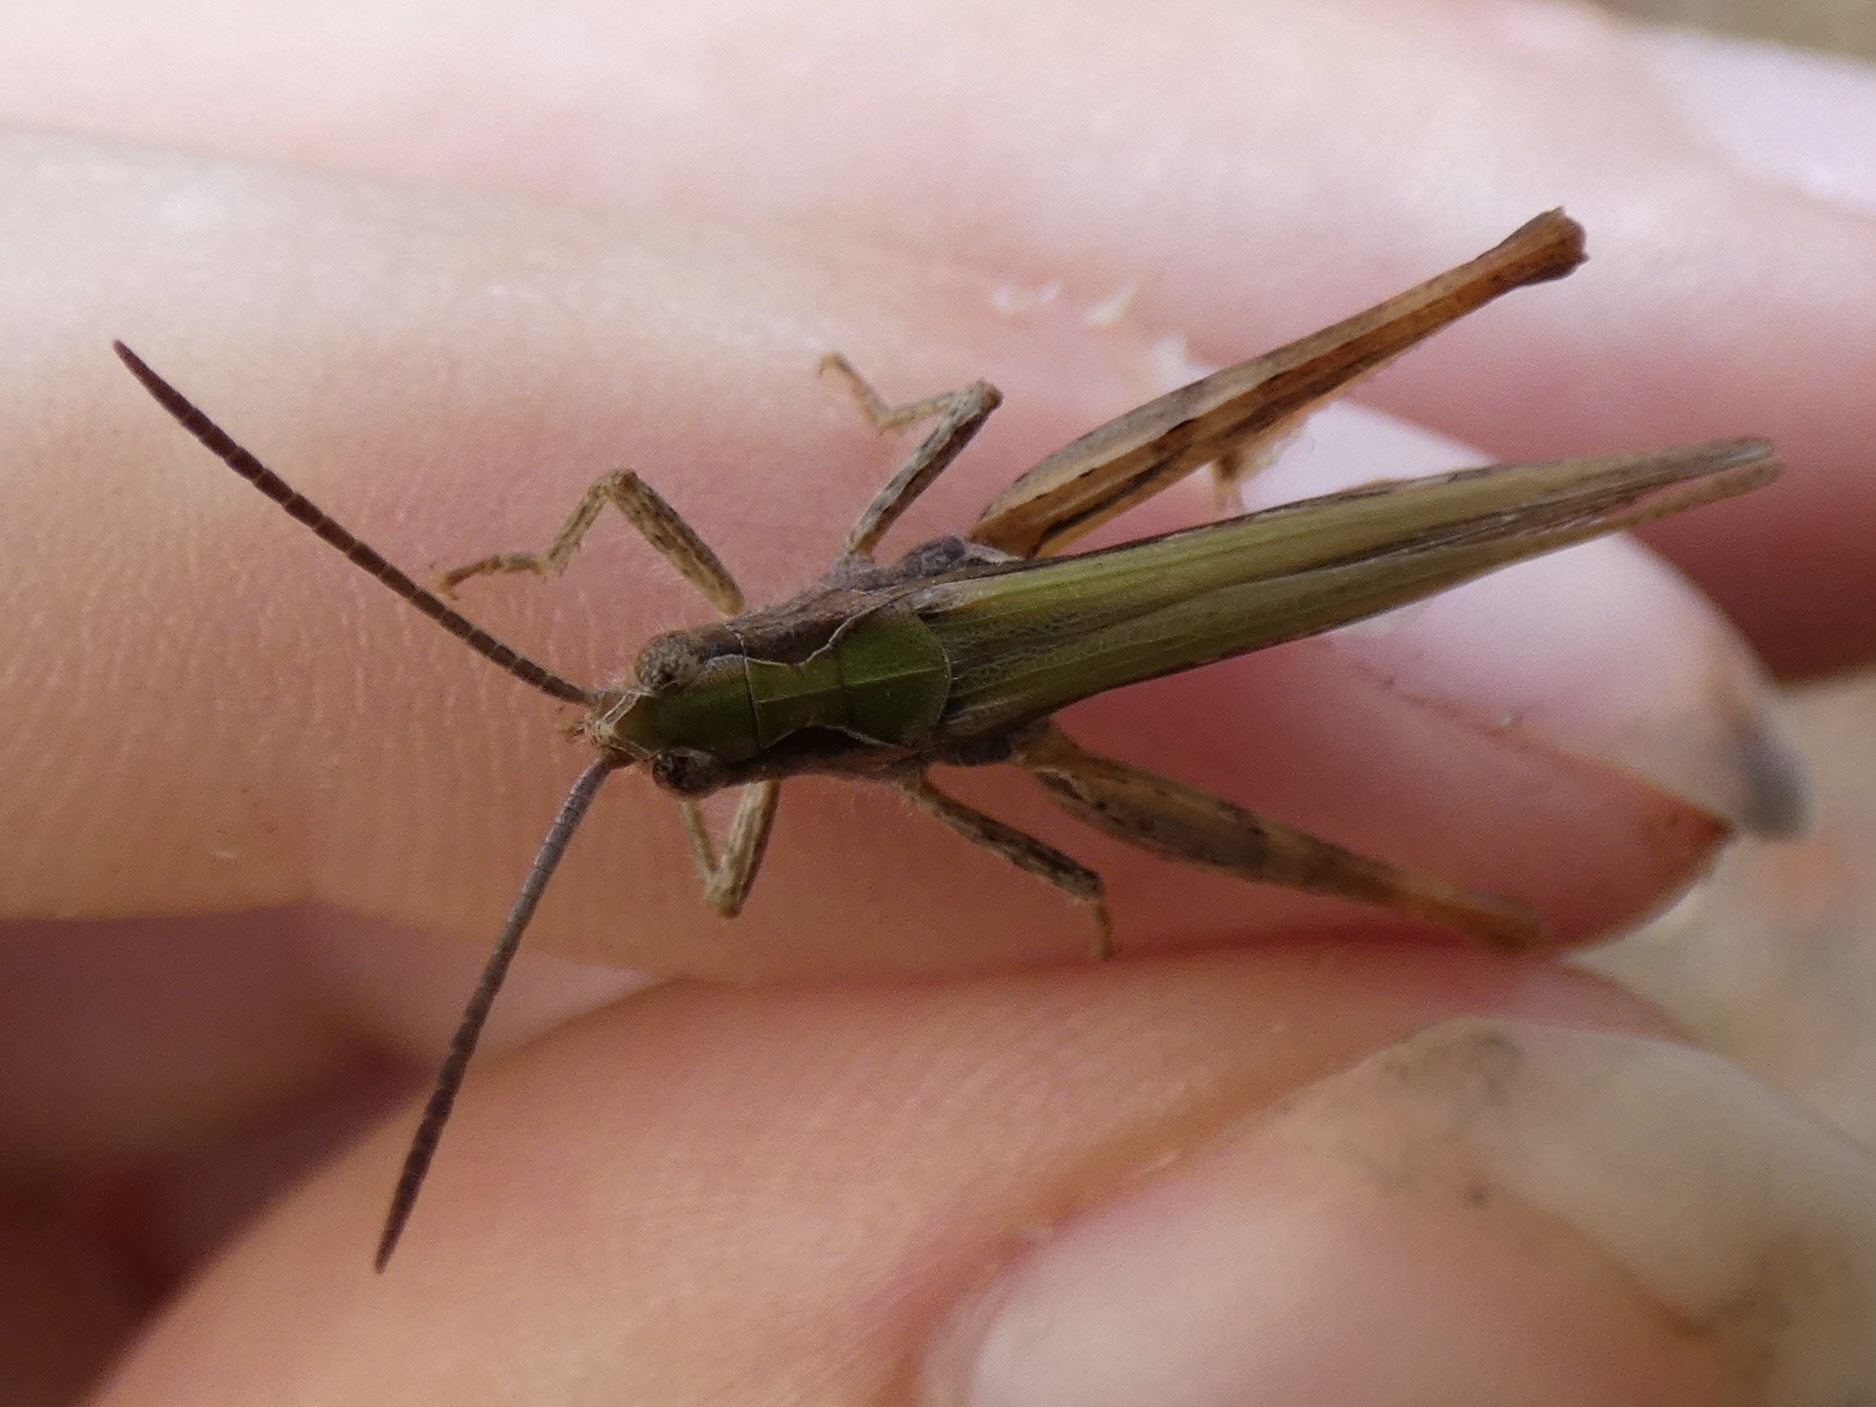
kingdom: Animalia
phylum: Arthropoda
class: Insecta
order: Orthoptera
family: Acrididae
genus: Chorthippus
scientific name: Chorthippus brunneus
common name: Field grasshopper
